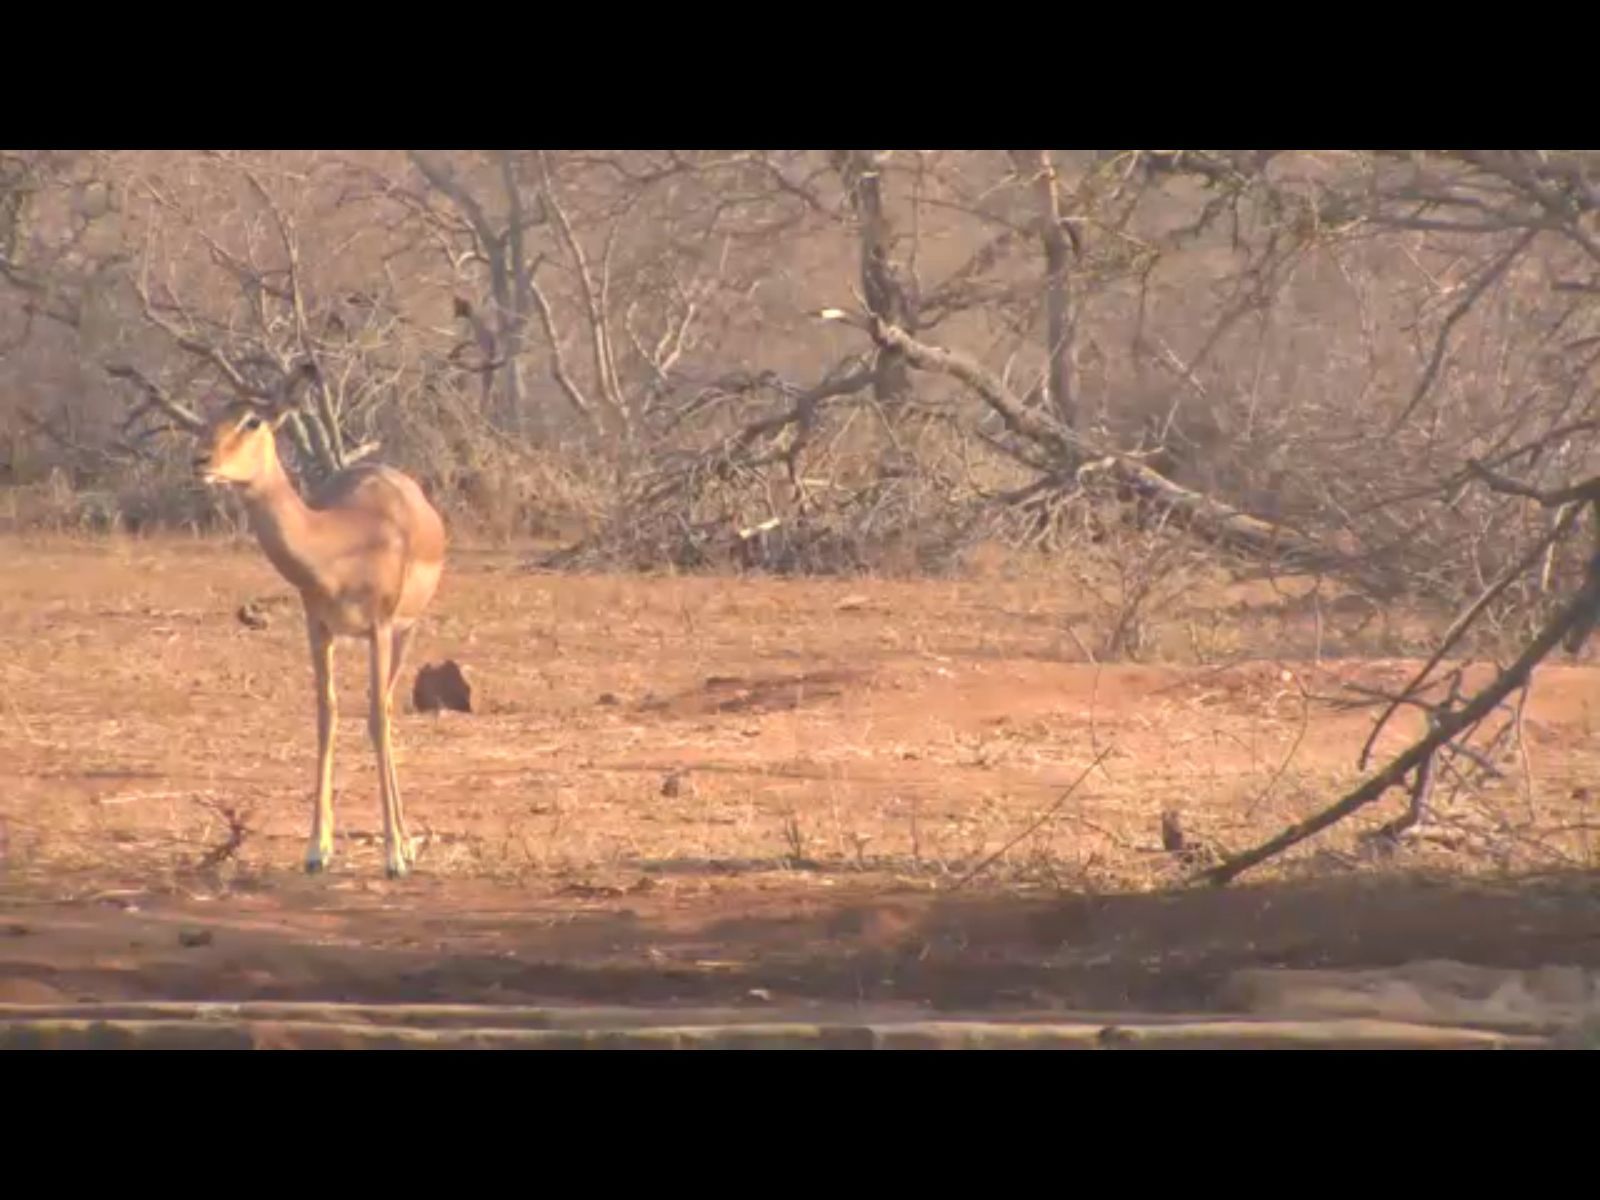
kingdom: Animalia
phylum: Chordata
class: Mammalia
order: Artiodactyla
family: Bovidae
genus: Aepyceros
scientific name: Aepyceros melampus
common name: Impala
